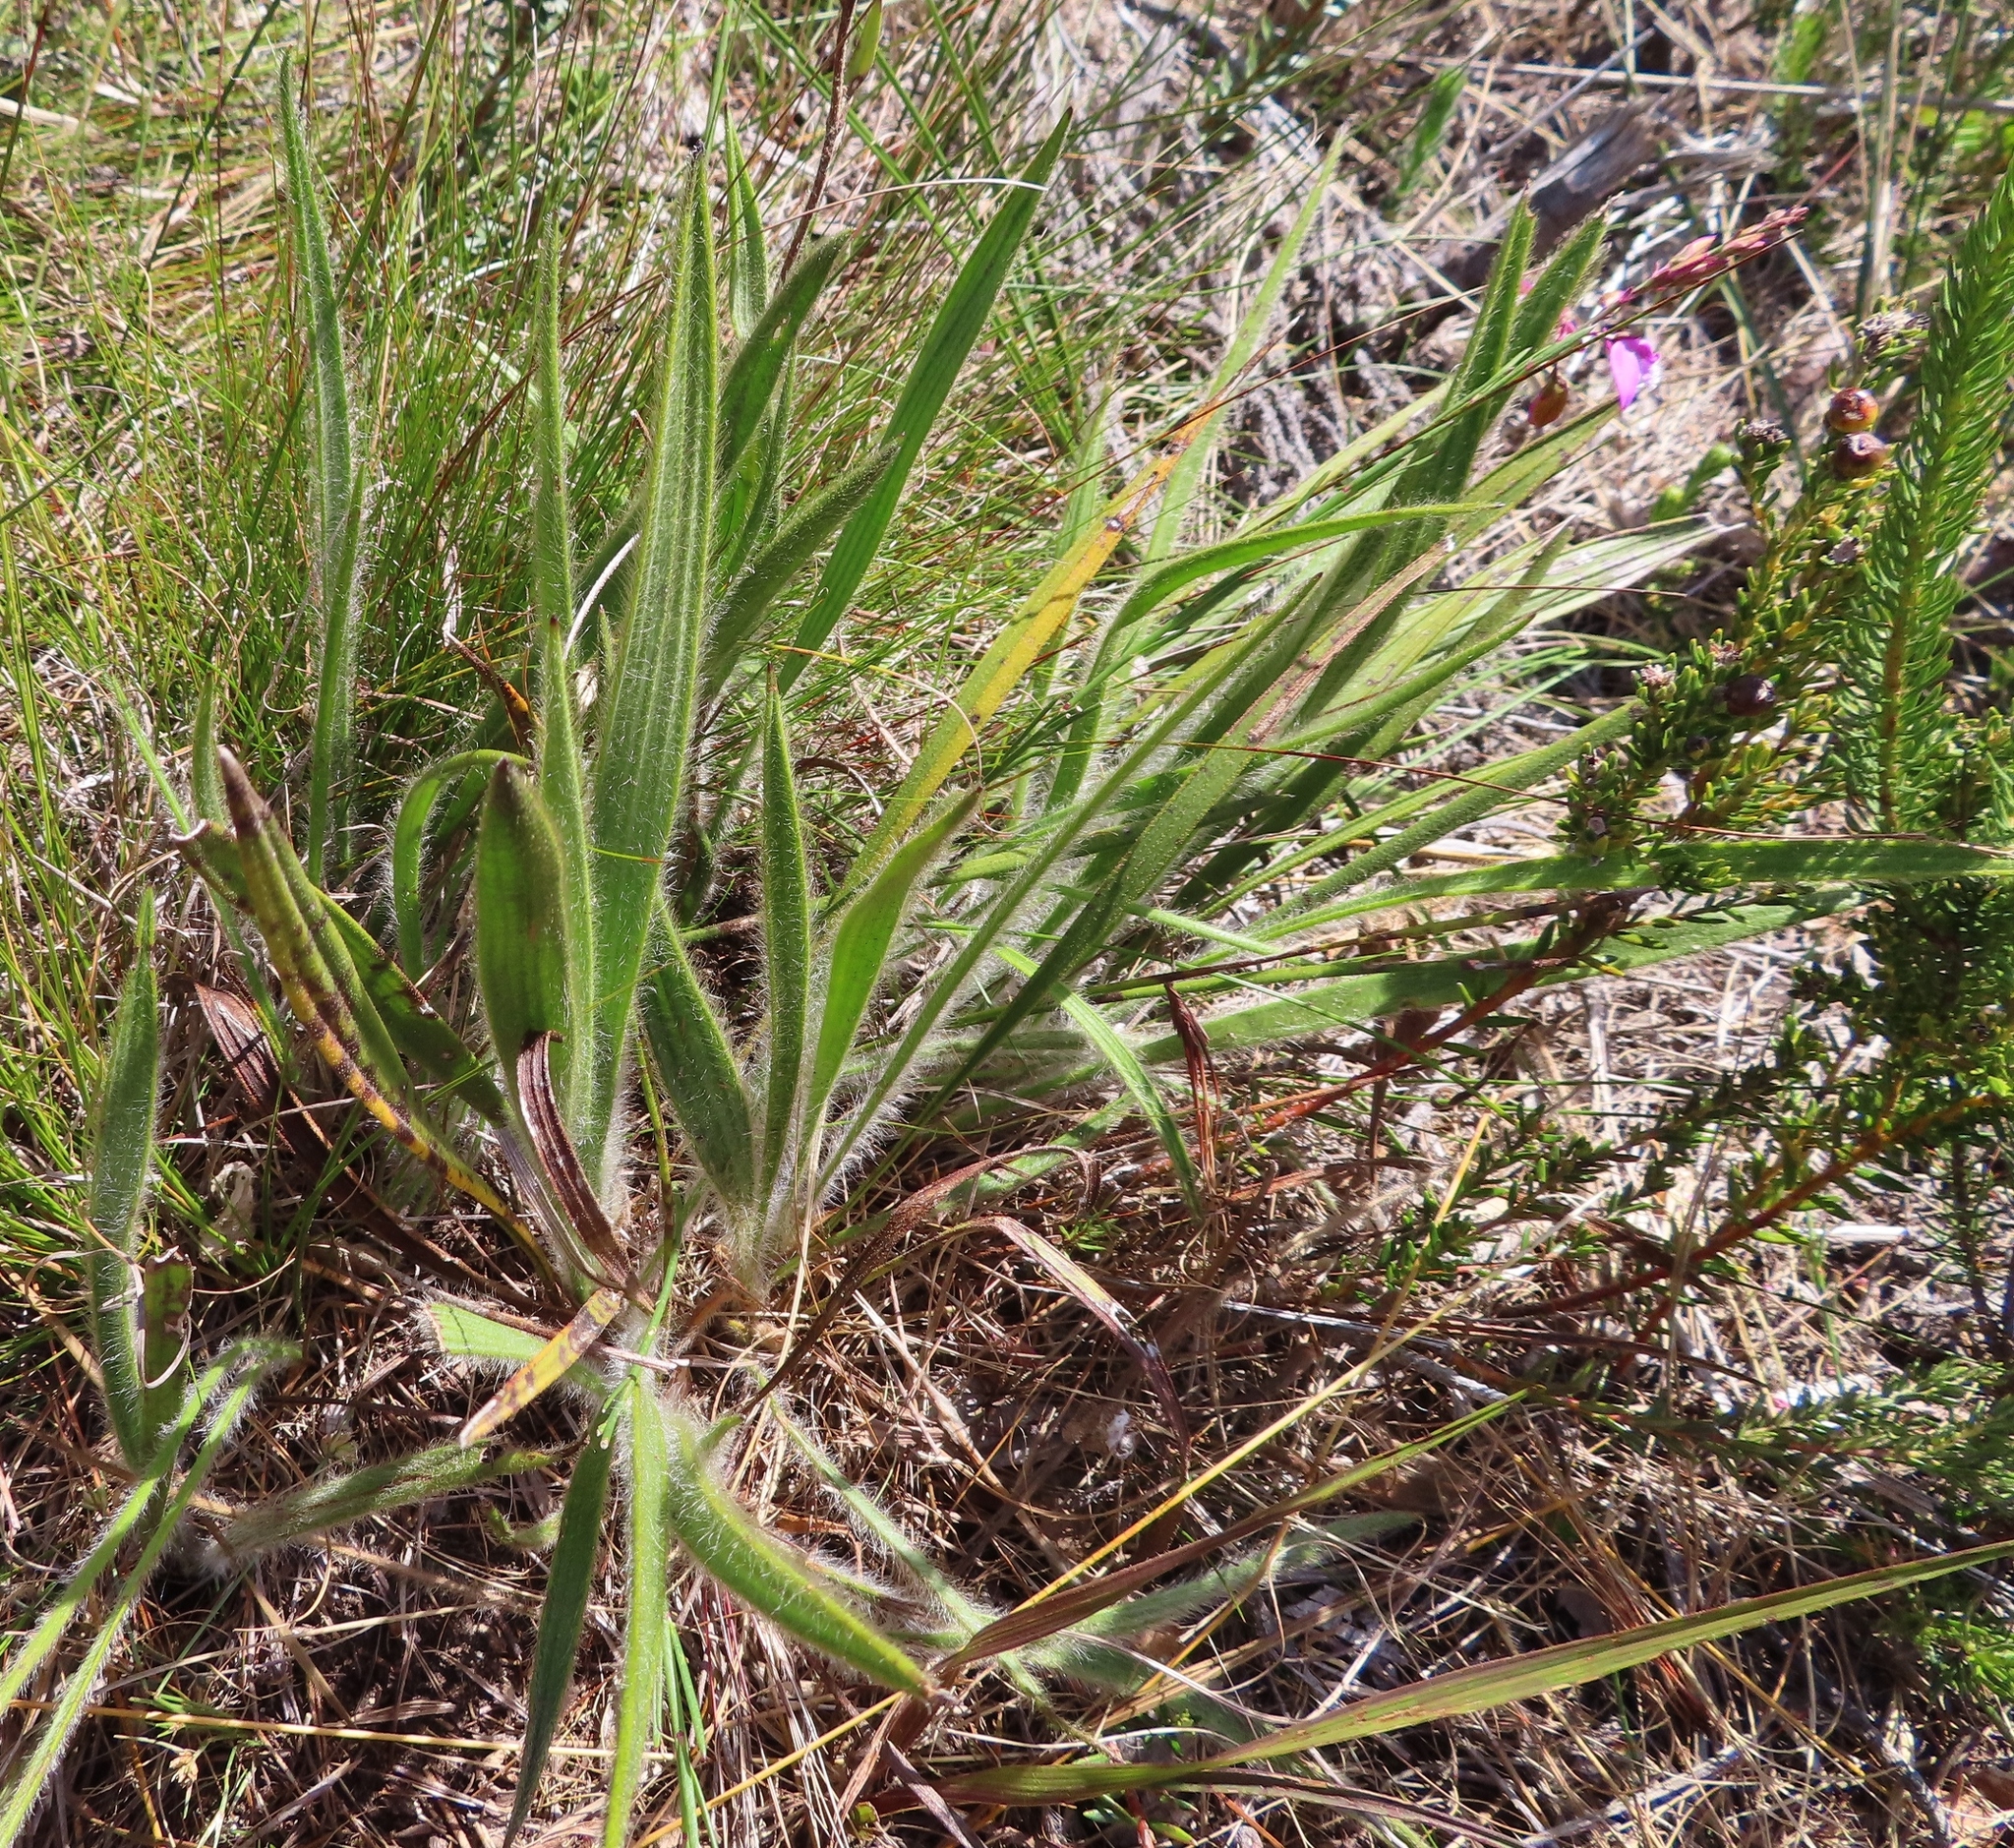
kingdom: Plantae
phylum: Tracheophyta
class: Magnoliopsida
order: Asterales
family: Asteraceae
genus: Corymbium
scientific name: Corymbium villosum
